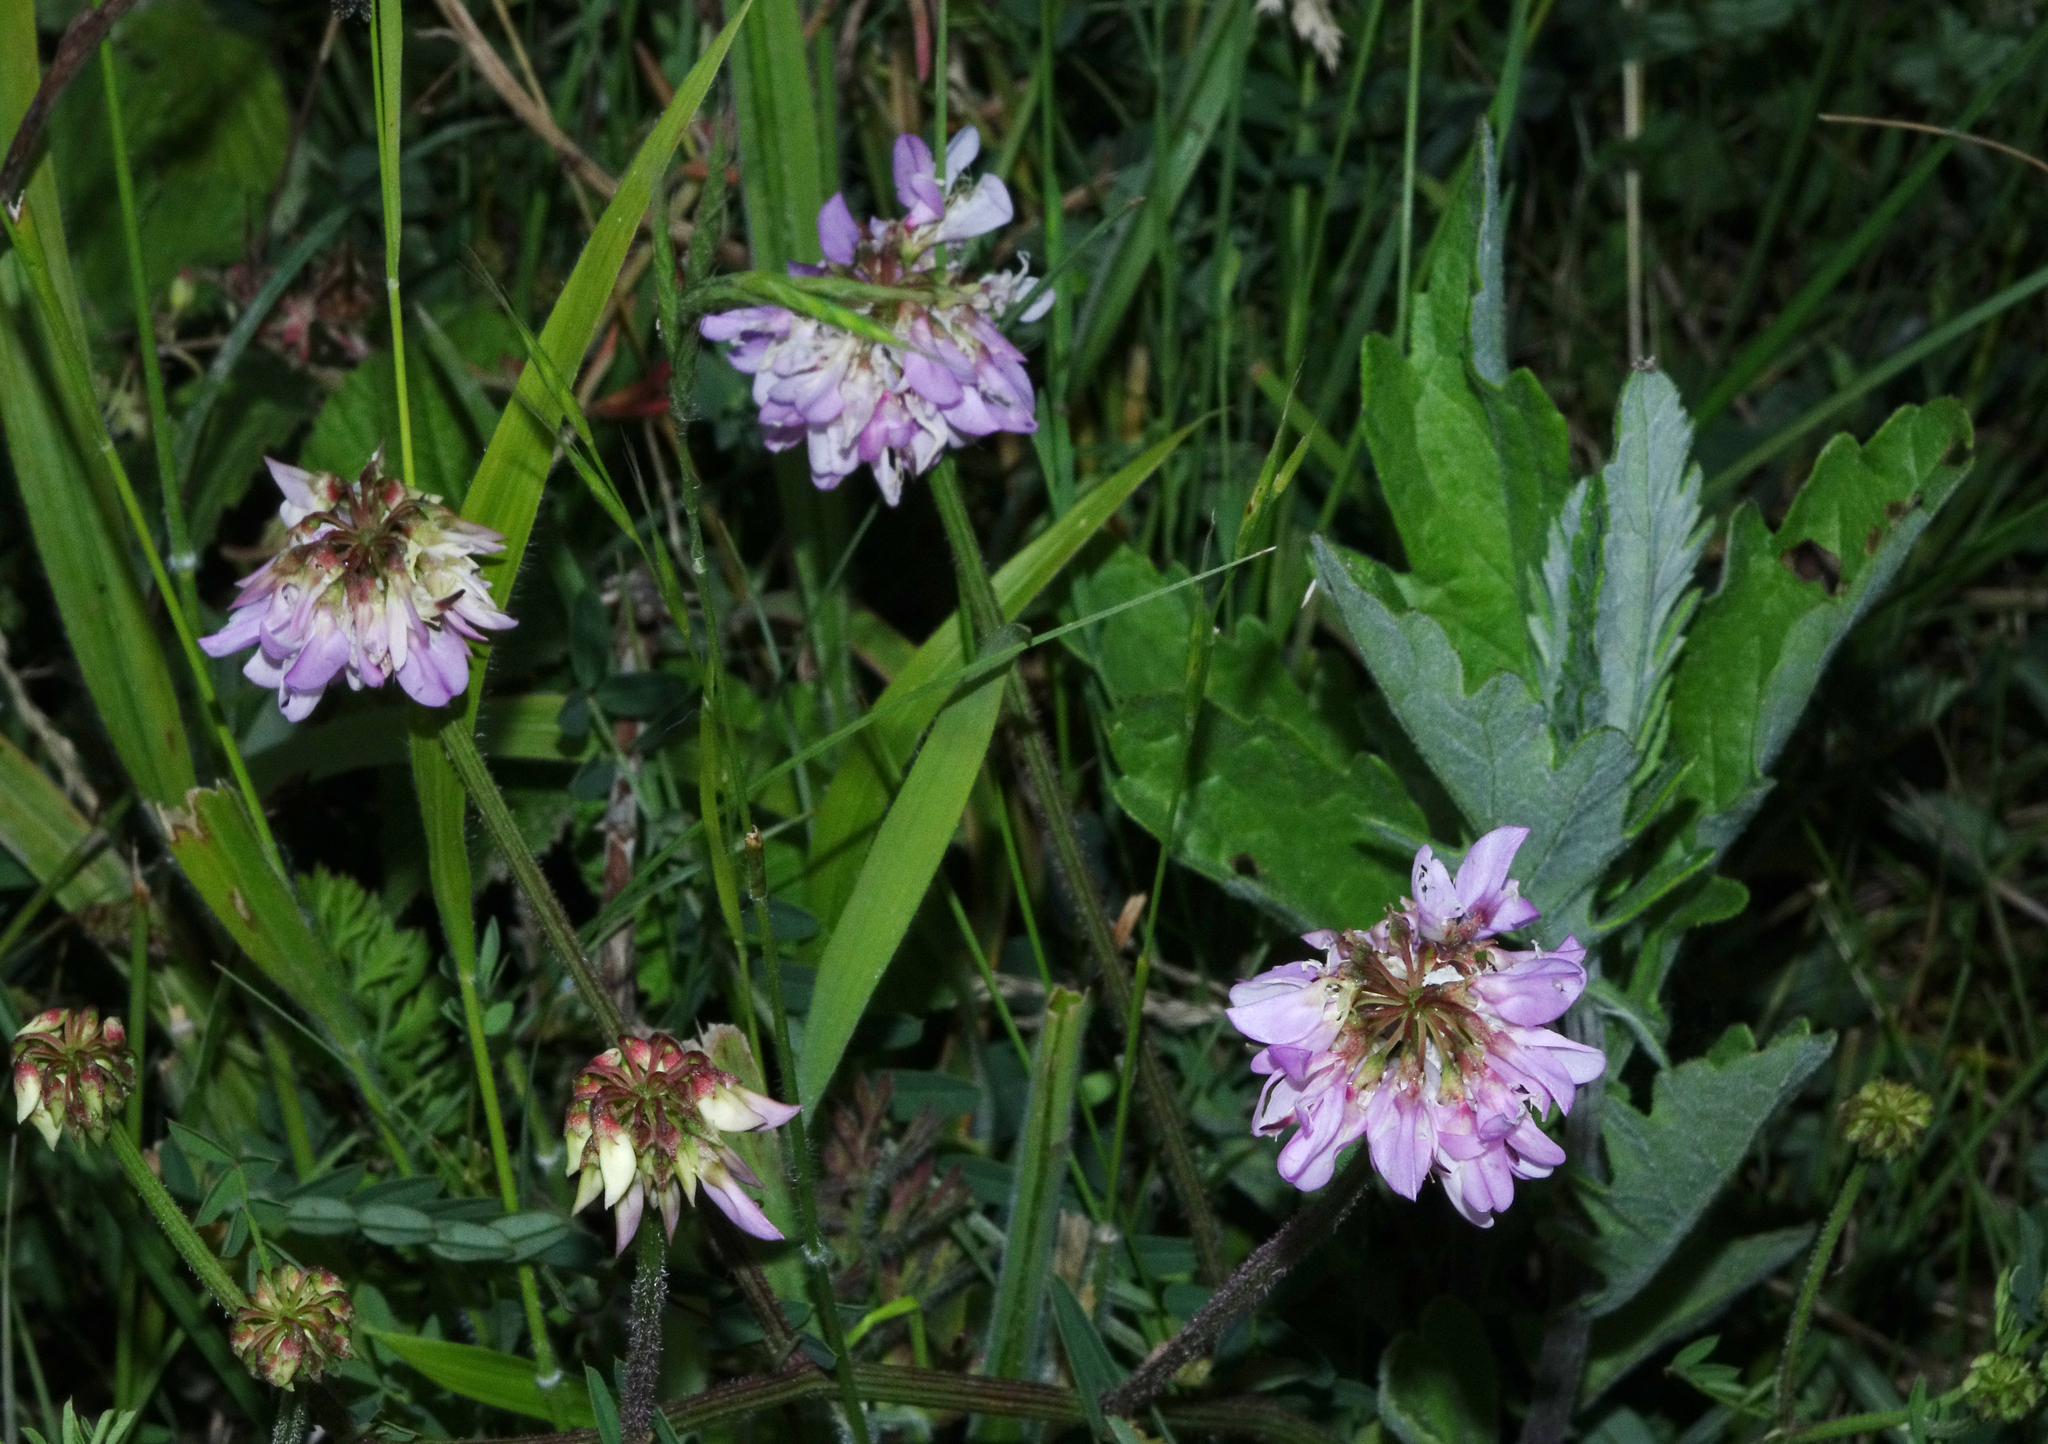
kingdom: Plantae
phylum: Tracheophyta
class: Magnoliopsida
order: Fabales
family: Fabaceae
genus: Coronilla
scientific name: Coronilla varia
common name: Crownvetch
